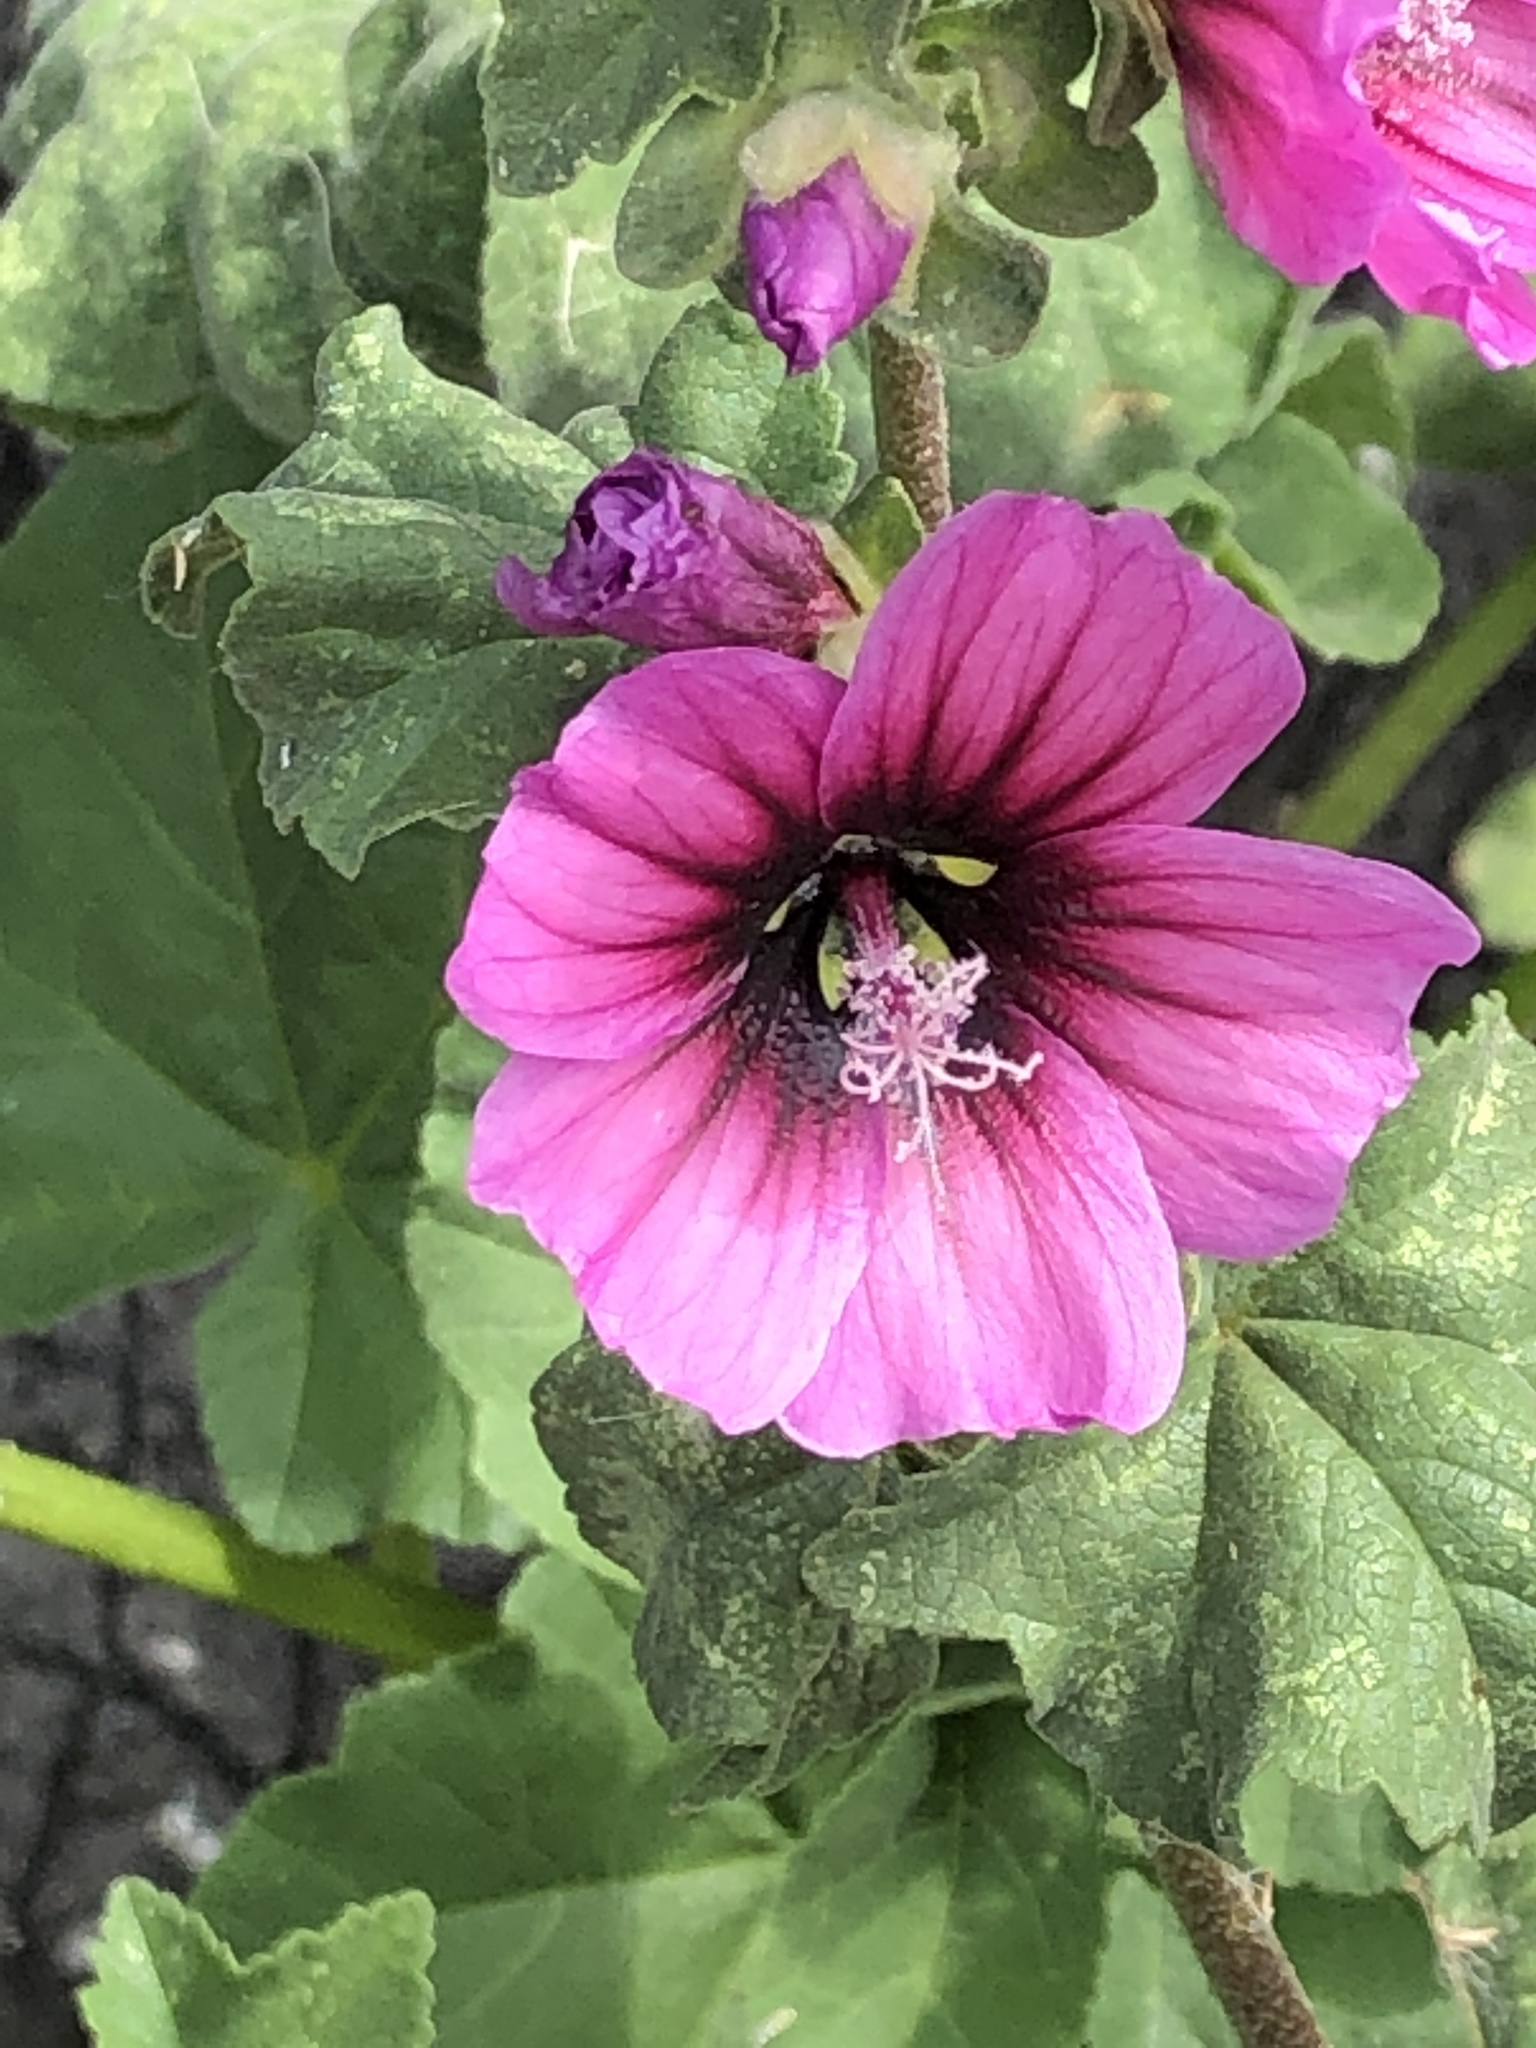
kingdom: Plantae
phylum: Tracheophyta
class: Magnoliopsida
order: Malvales
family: Malvaceae
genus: Malva
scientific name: Malva arborea
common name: Tree mallow
